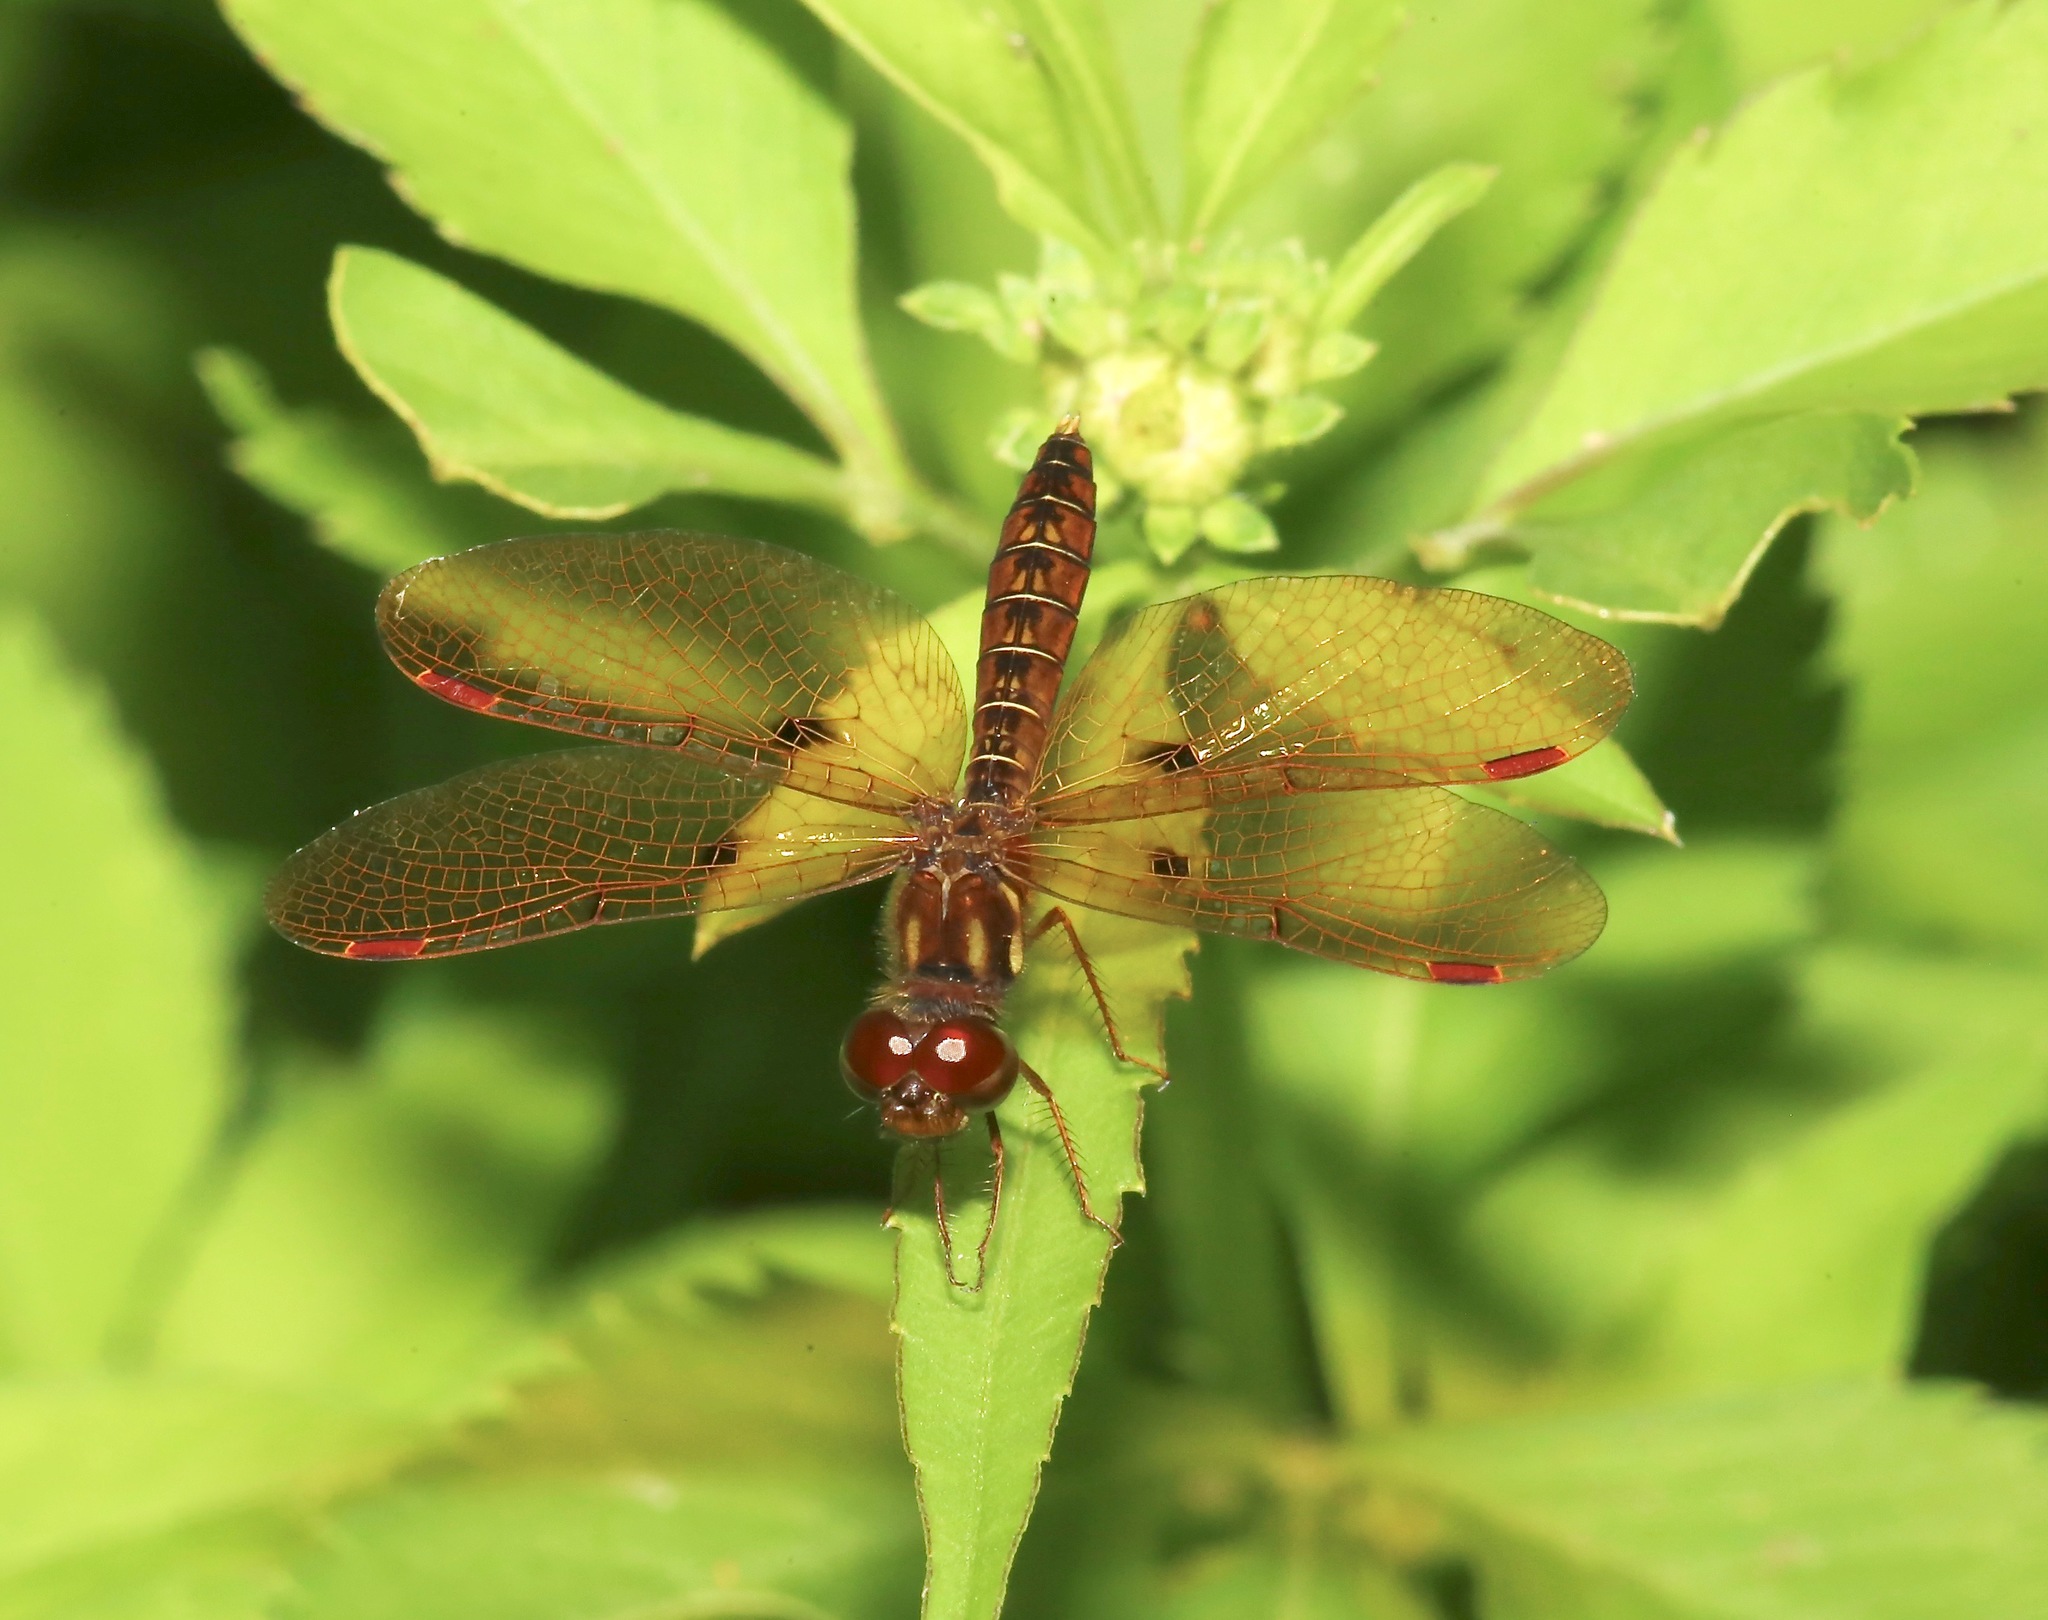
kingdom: Animalia
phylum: Arthropoda
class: Insecta
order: Odonata
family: Libellulidae
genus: Perithemis
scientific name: Perithemis tenera
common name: Eastern amberwing
